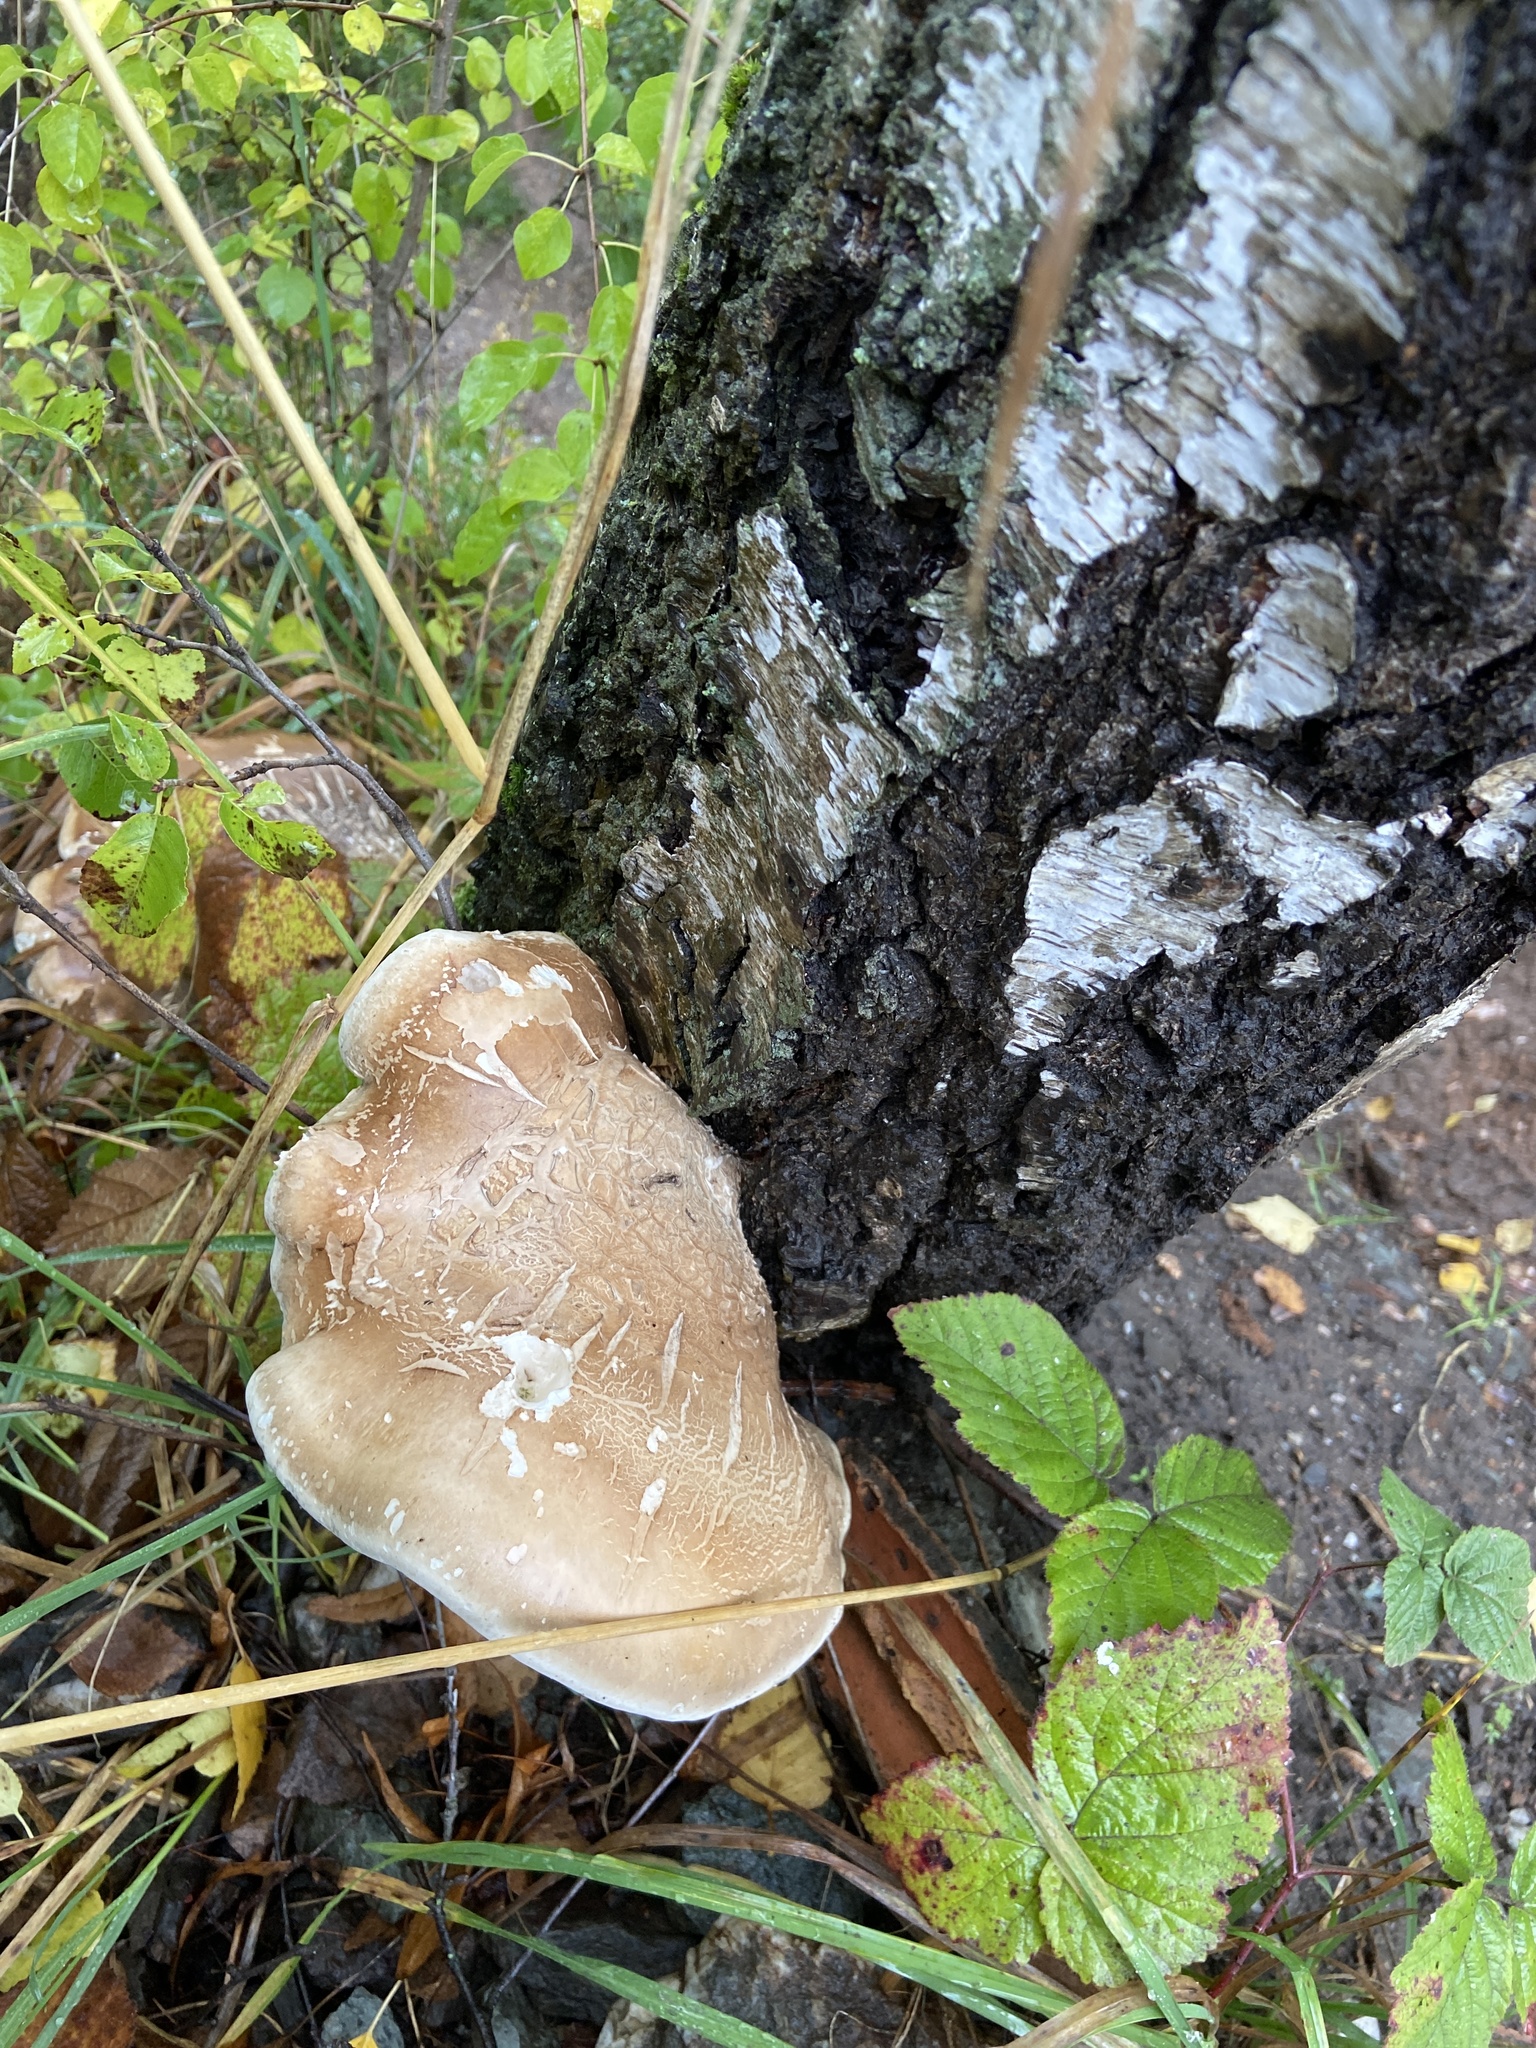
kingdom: Fungi
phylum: Basidiomycota
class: Agaricomycetes
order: Polyporales
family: Fomitopsidaceae
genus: Fomitopsis
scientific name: Fomitopsis betulina
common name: Birch polypore
